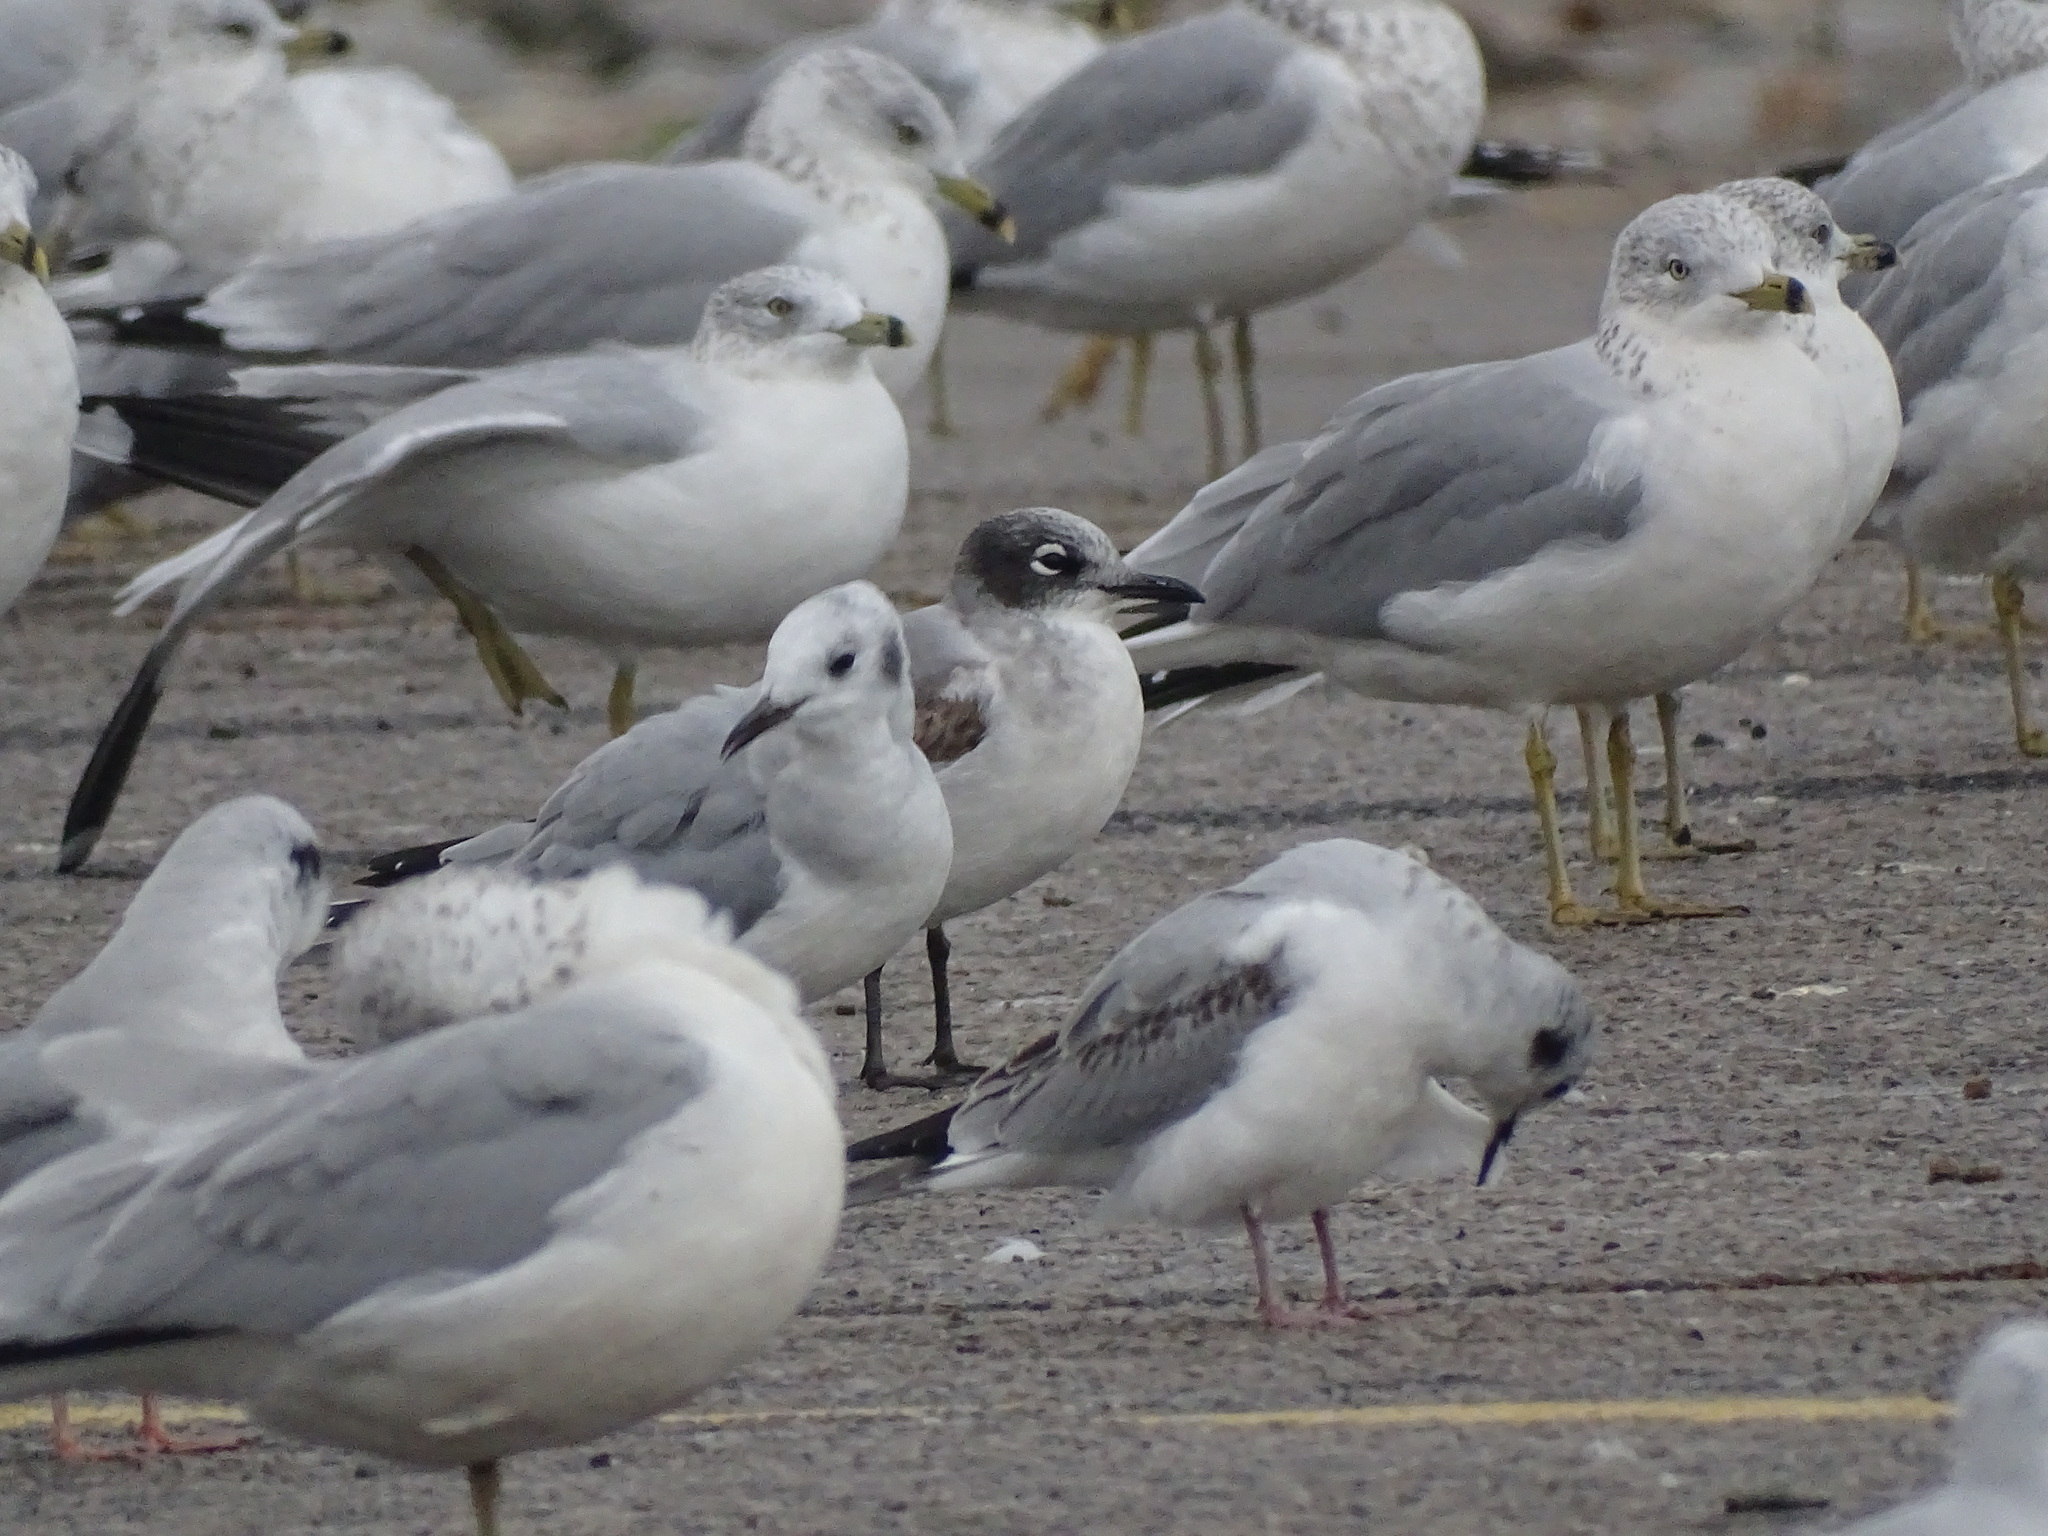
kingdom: Animalia
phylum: Chordata
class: Aves
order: Charadriiformes
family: Laridae
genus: Leucophaeus
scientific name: Leucophaeus pipixcan
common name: Franklin's gull
